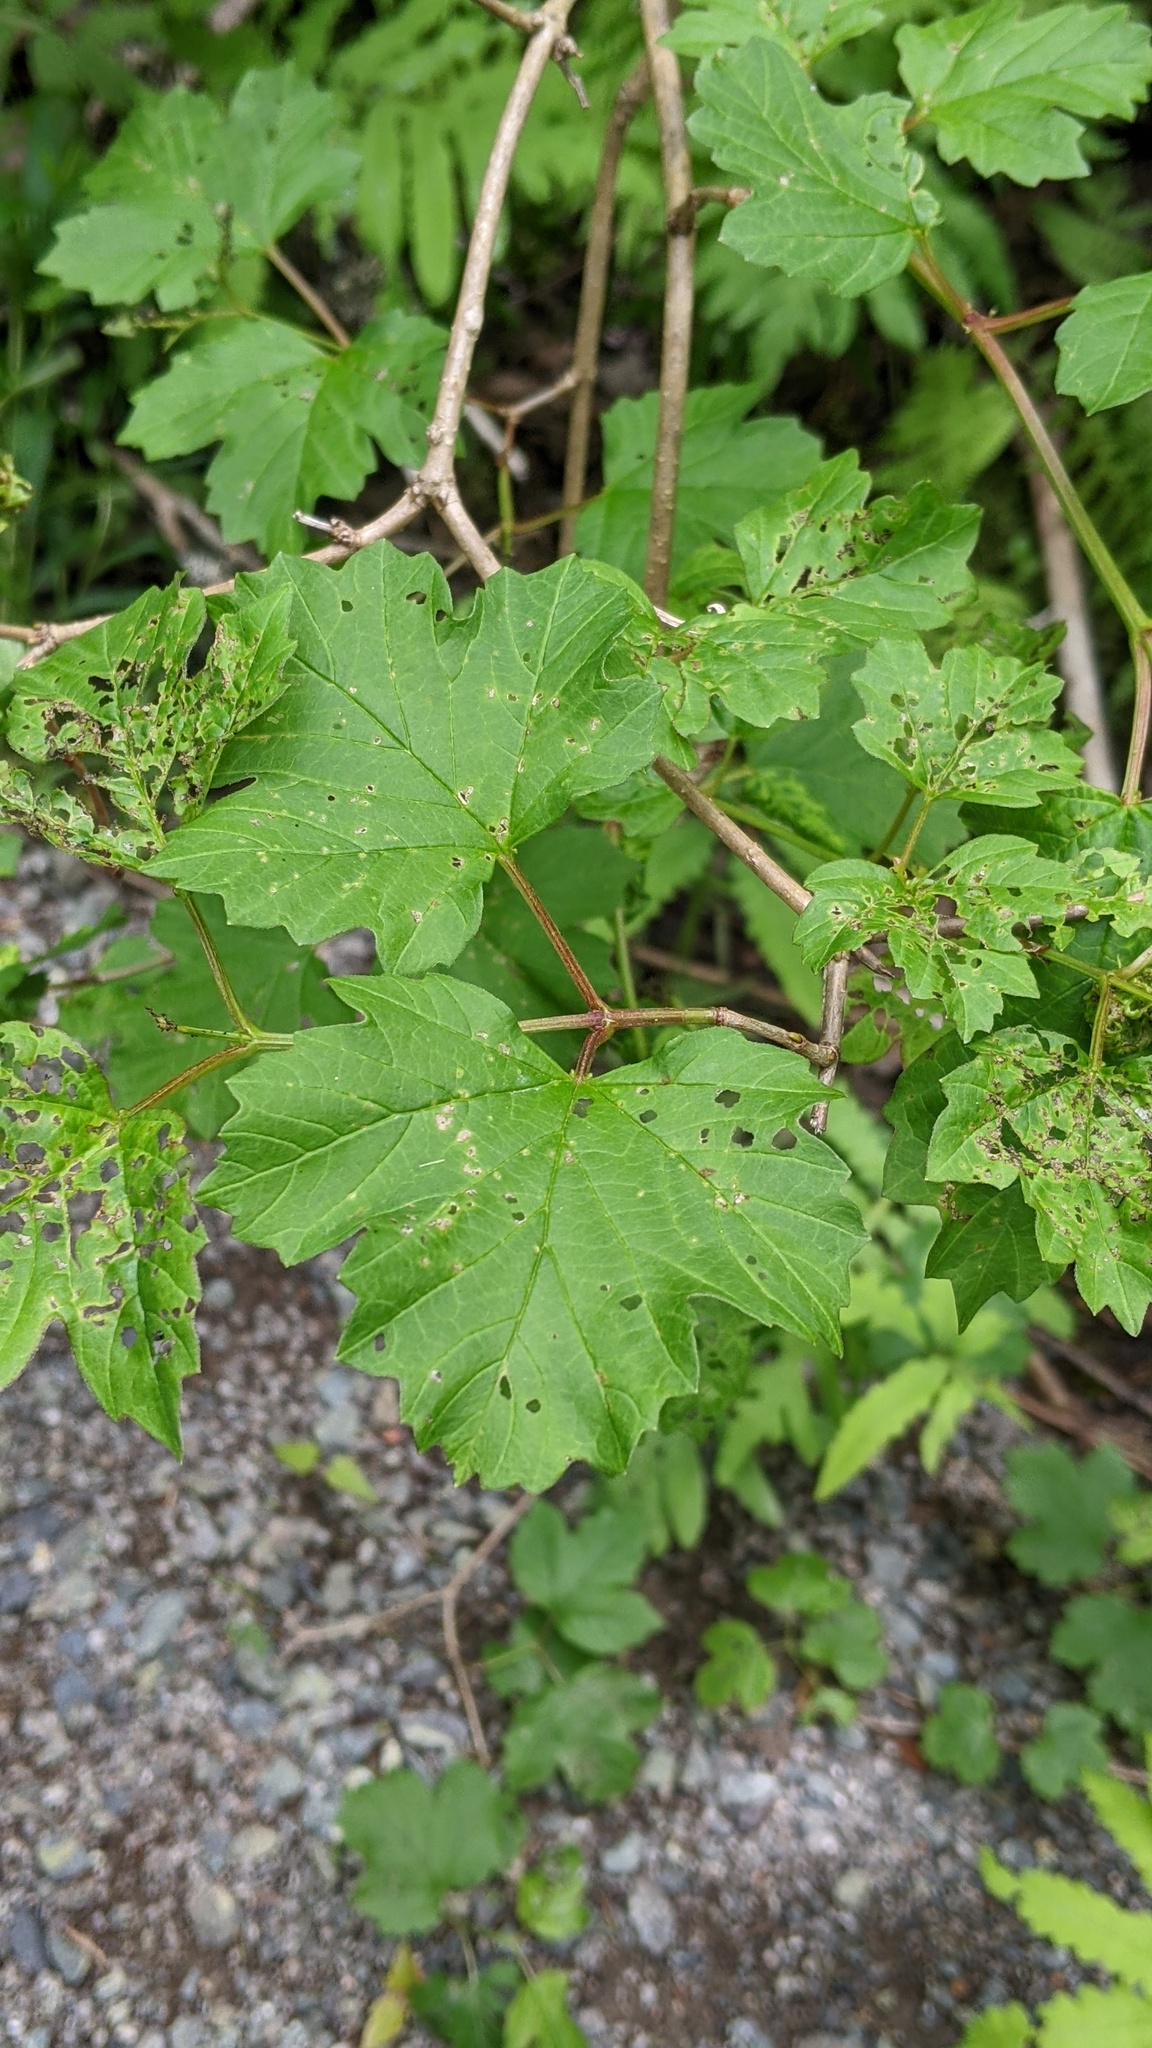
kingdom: Plantae
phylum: Tracheophyta
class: Magnoliopsida
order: Dipsacales
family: Viburnaceae
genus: Viburnum
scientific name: Viburnum opulus
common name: Guelder-rose
